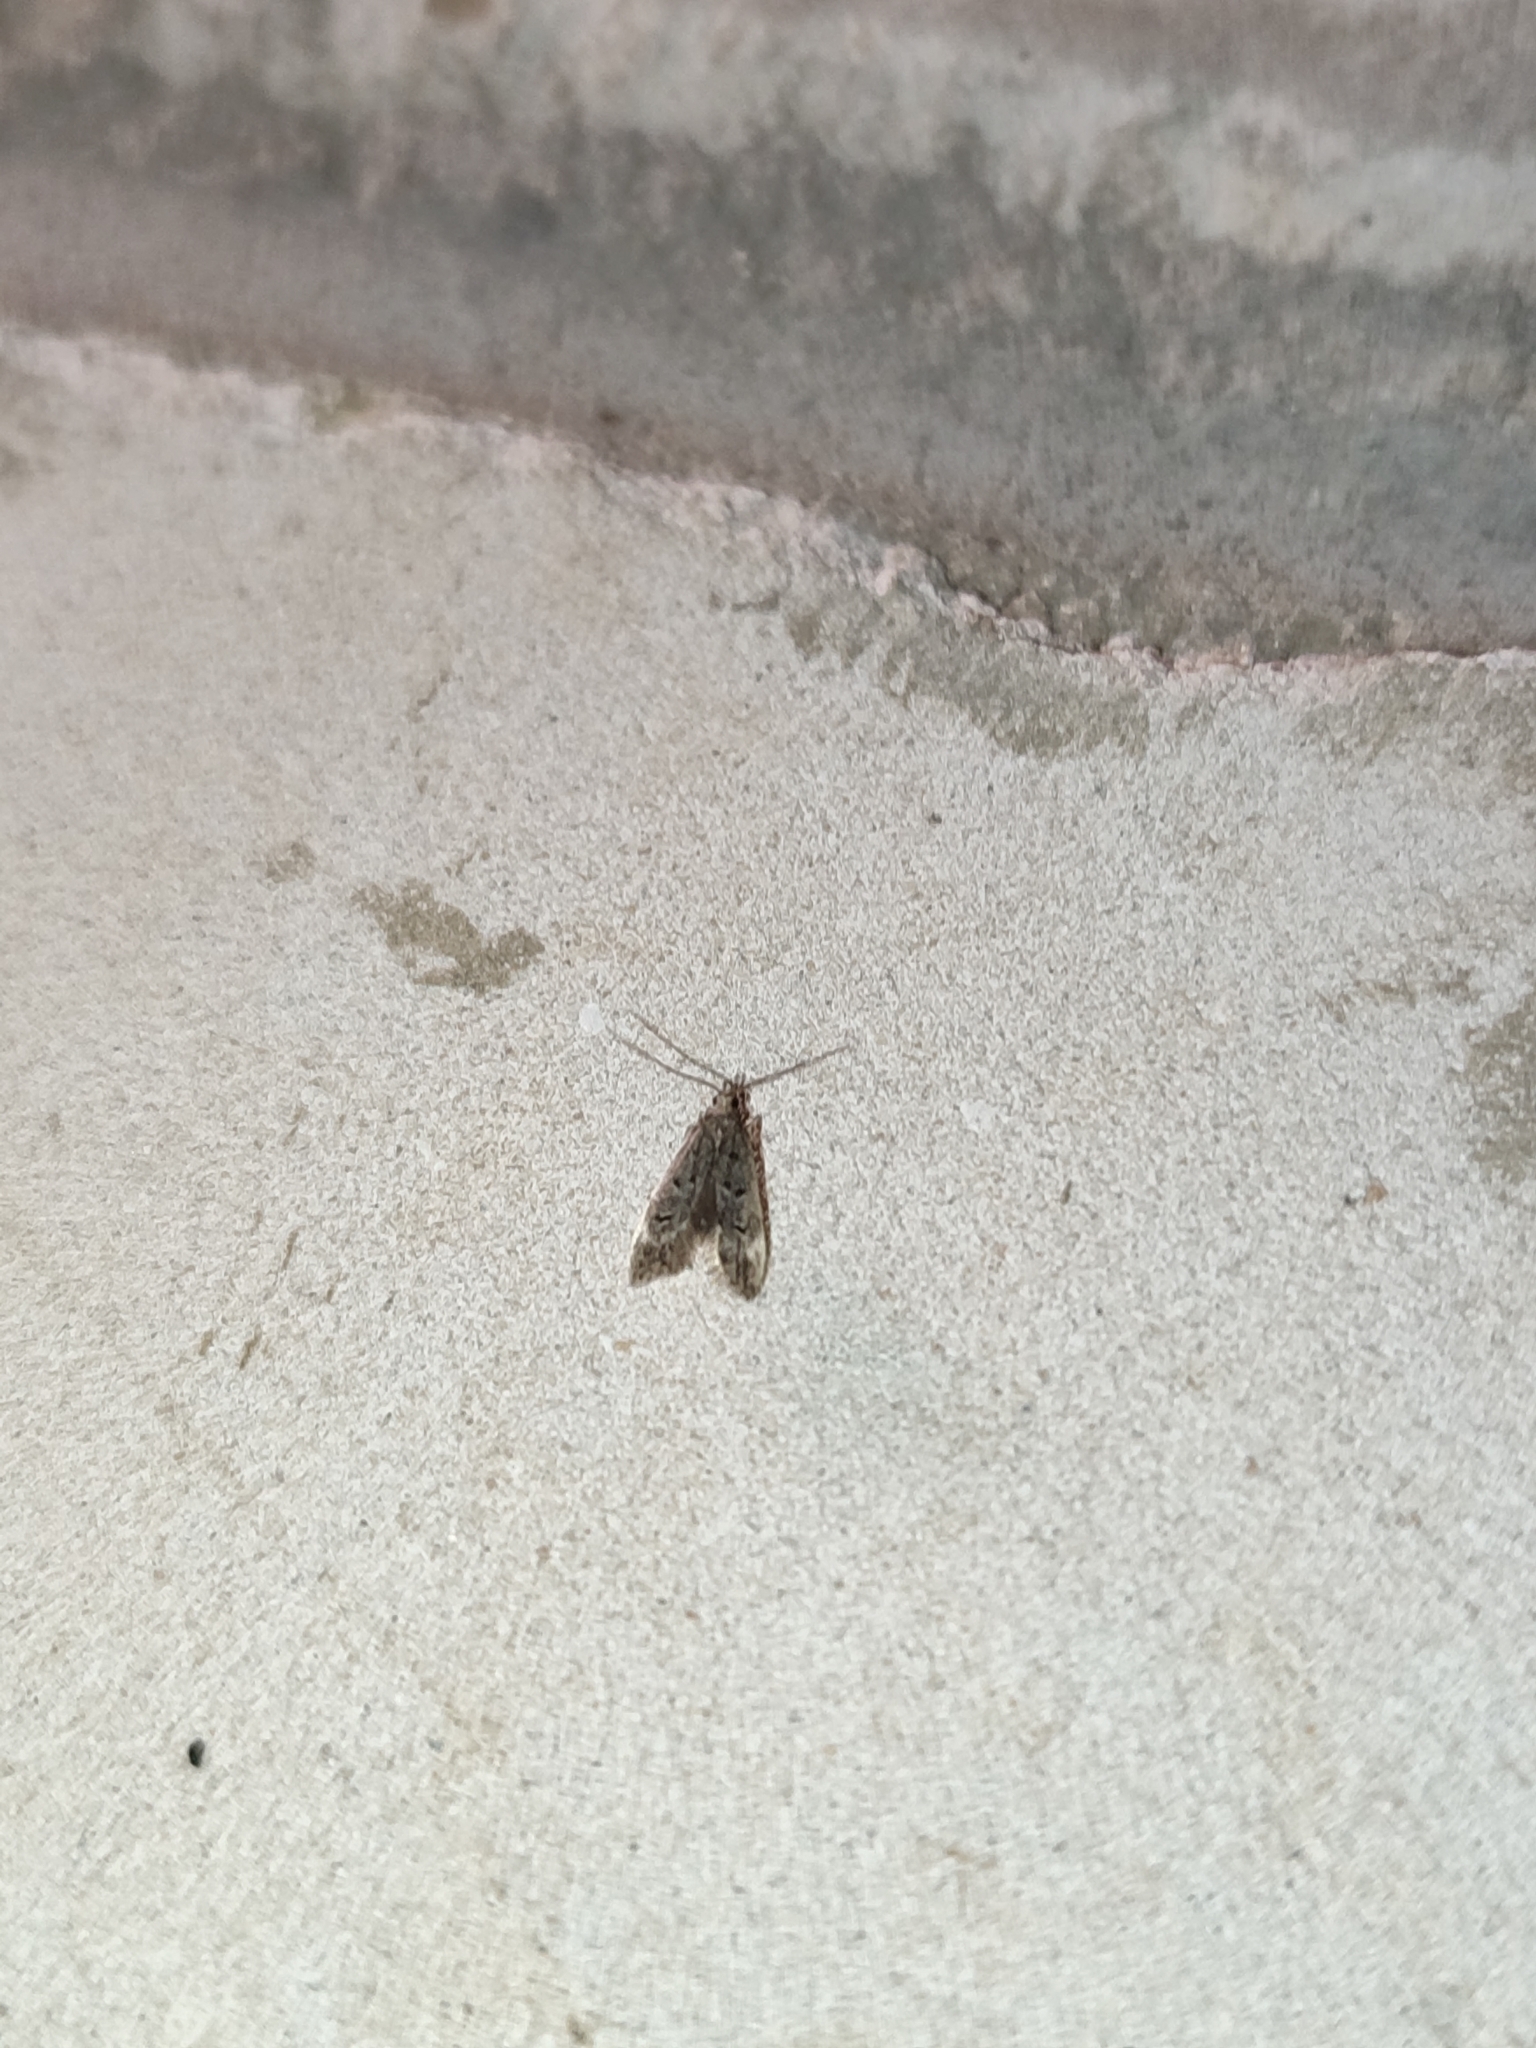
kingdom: Animalia
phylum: Arthropoda
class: Insecta
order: Lepidoptera
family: Gelechiidae
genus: Acanthophila
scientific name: Acanthophila alacella
